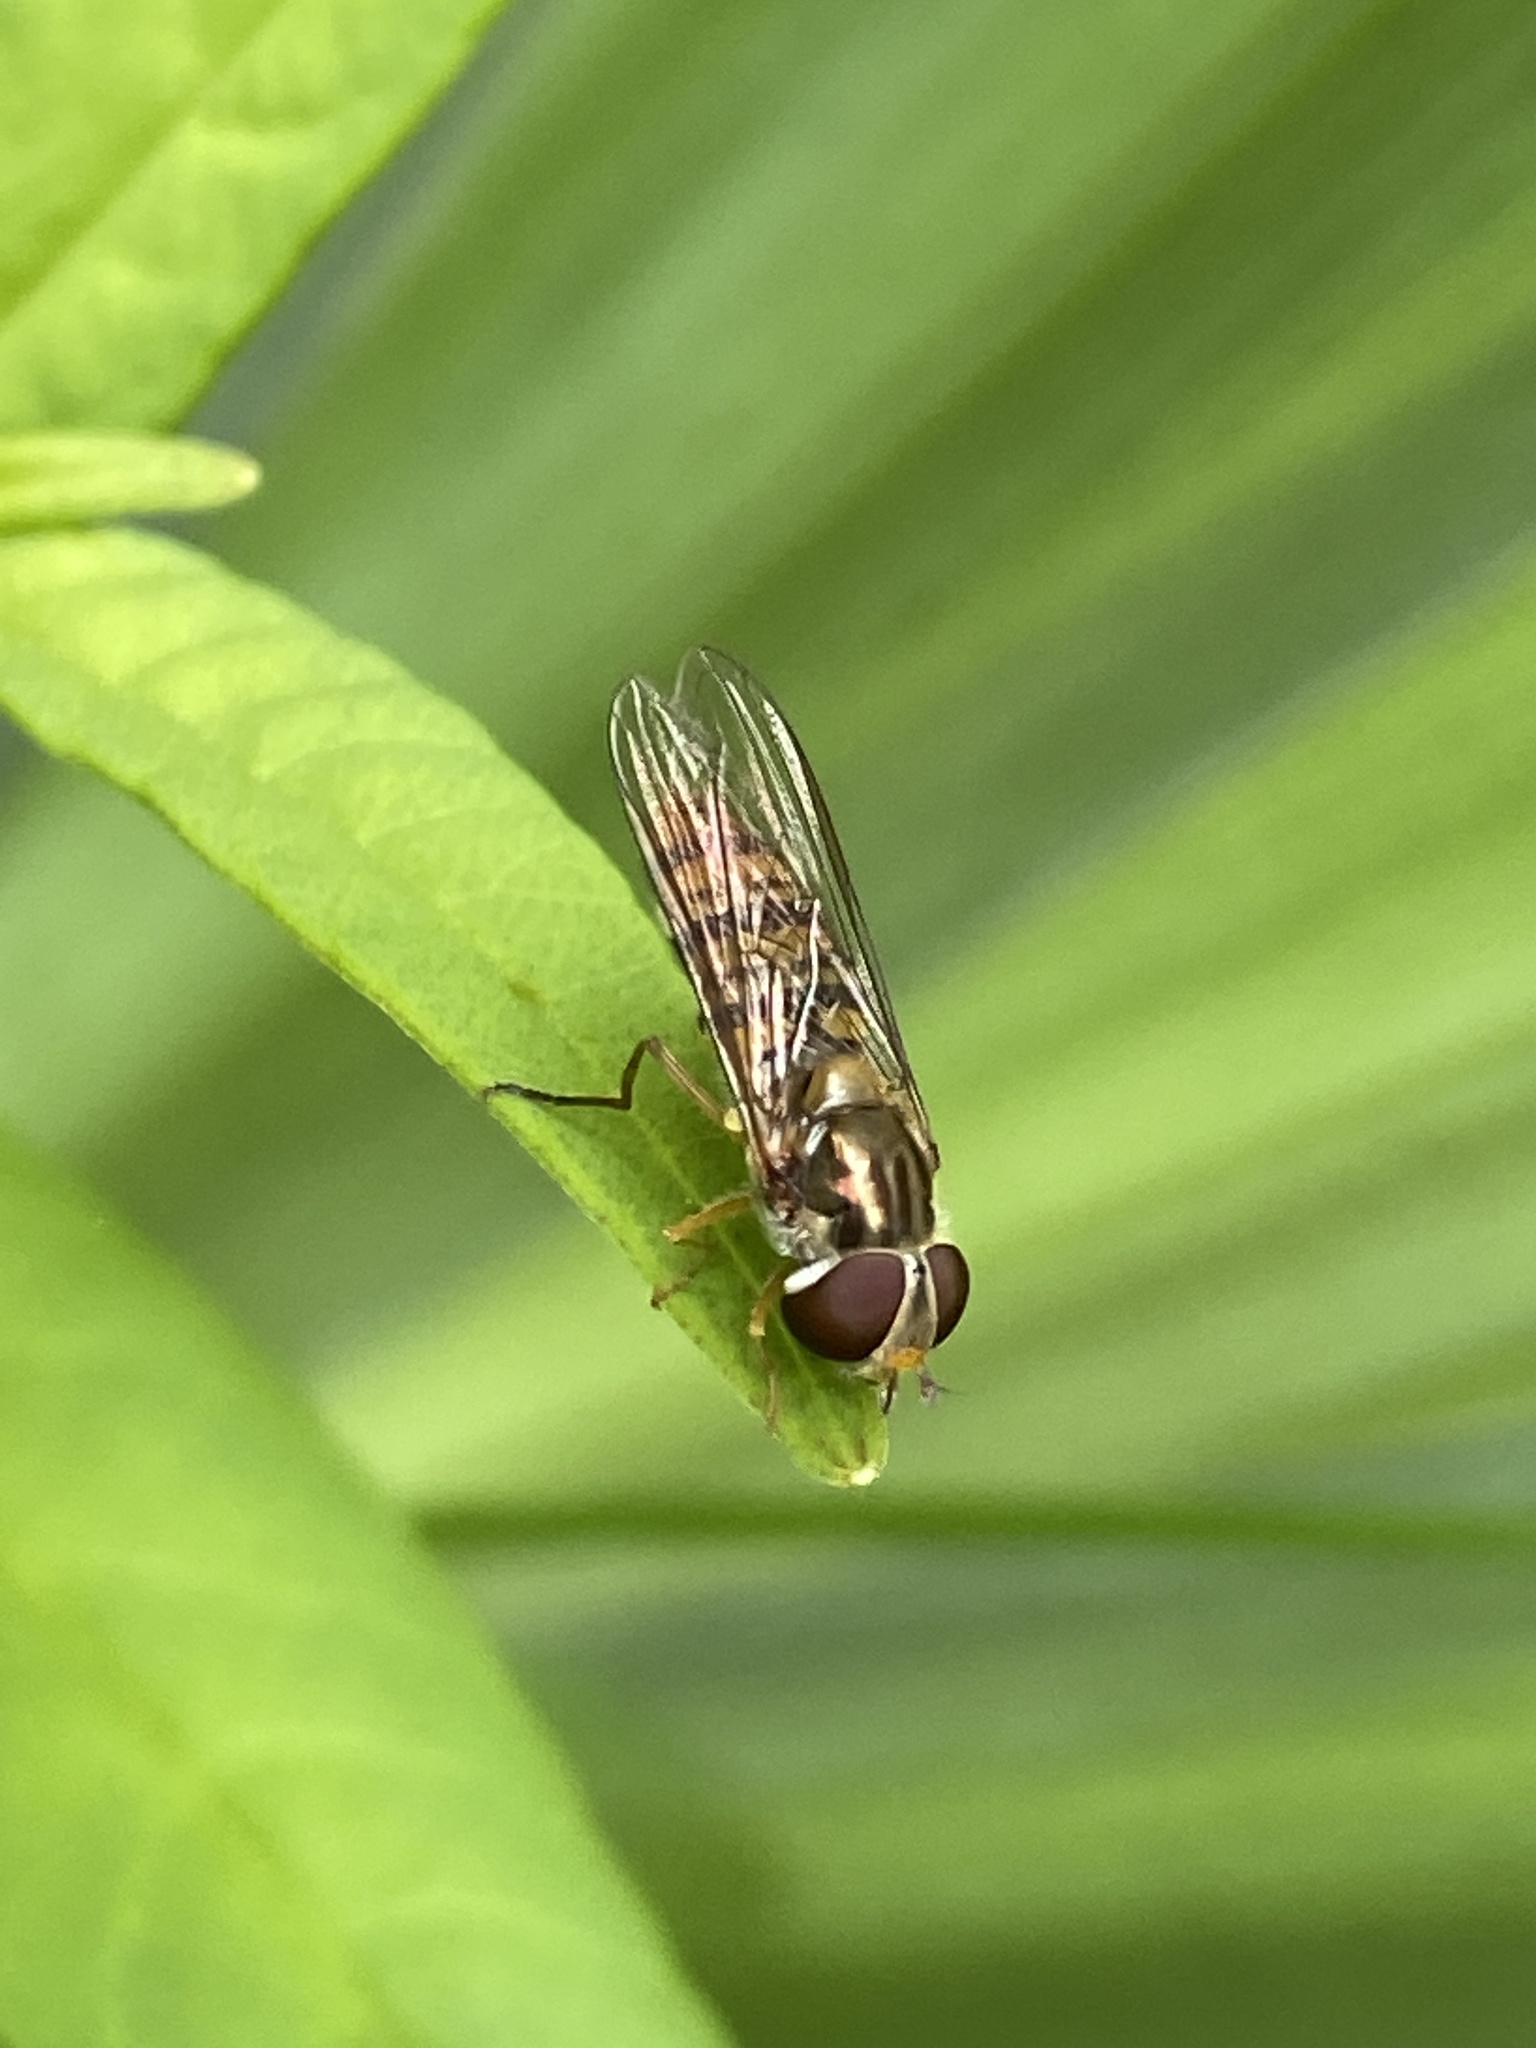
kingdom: Animalia
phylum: Arthropoda
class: Insecta
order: Diptera
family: Syrphidae
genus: Episyrphus
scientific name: Episyrphus balteatus
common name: Marmalade hoverfly
